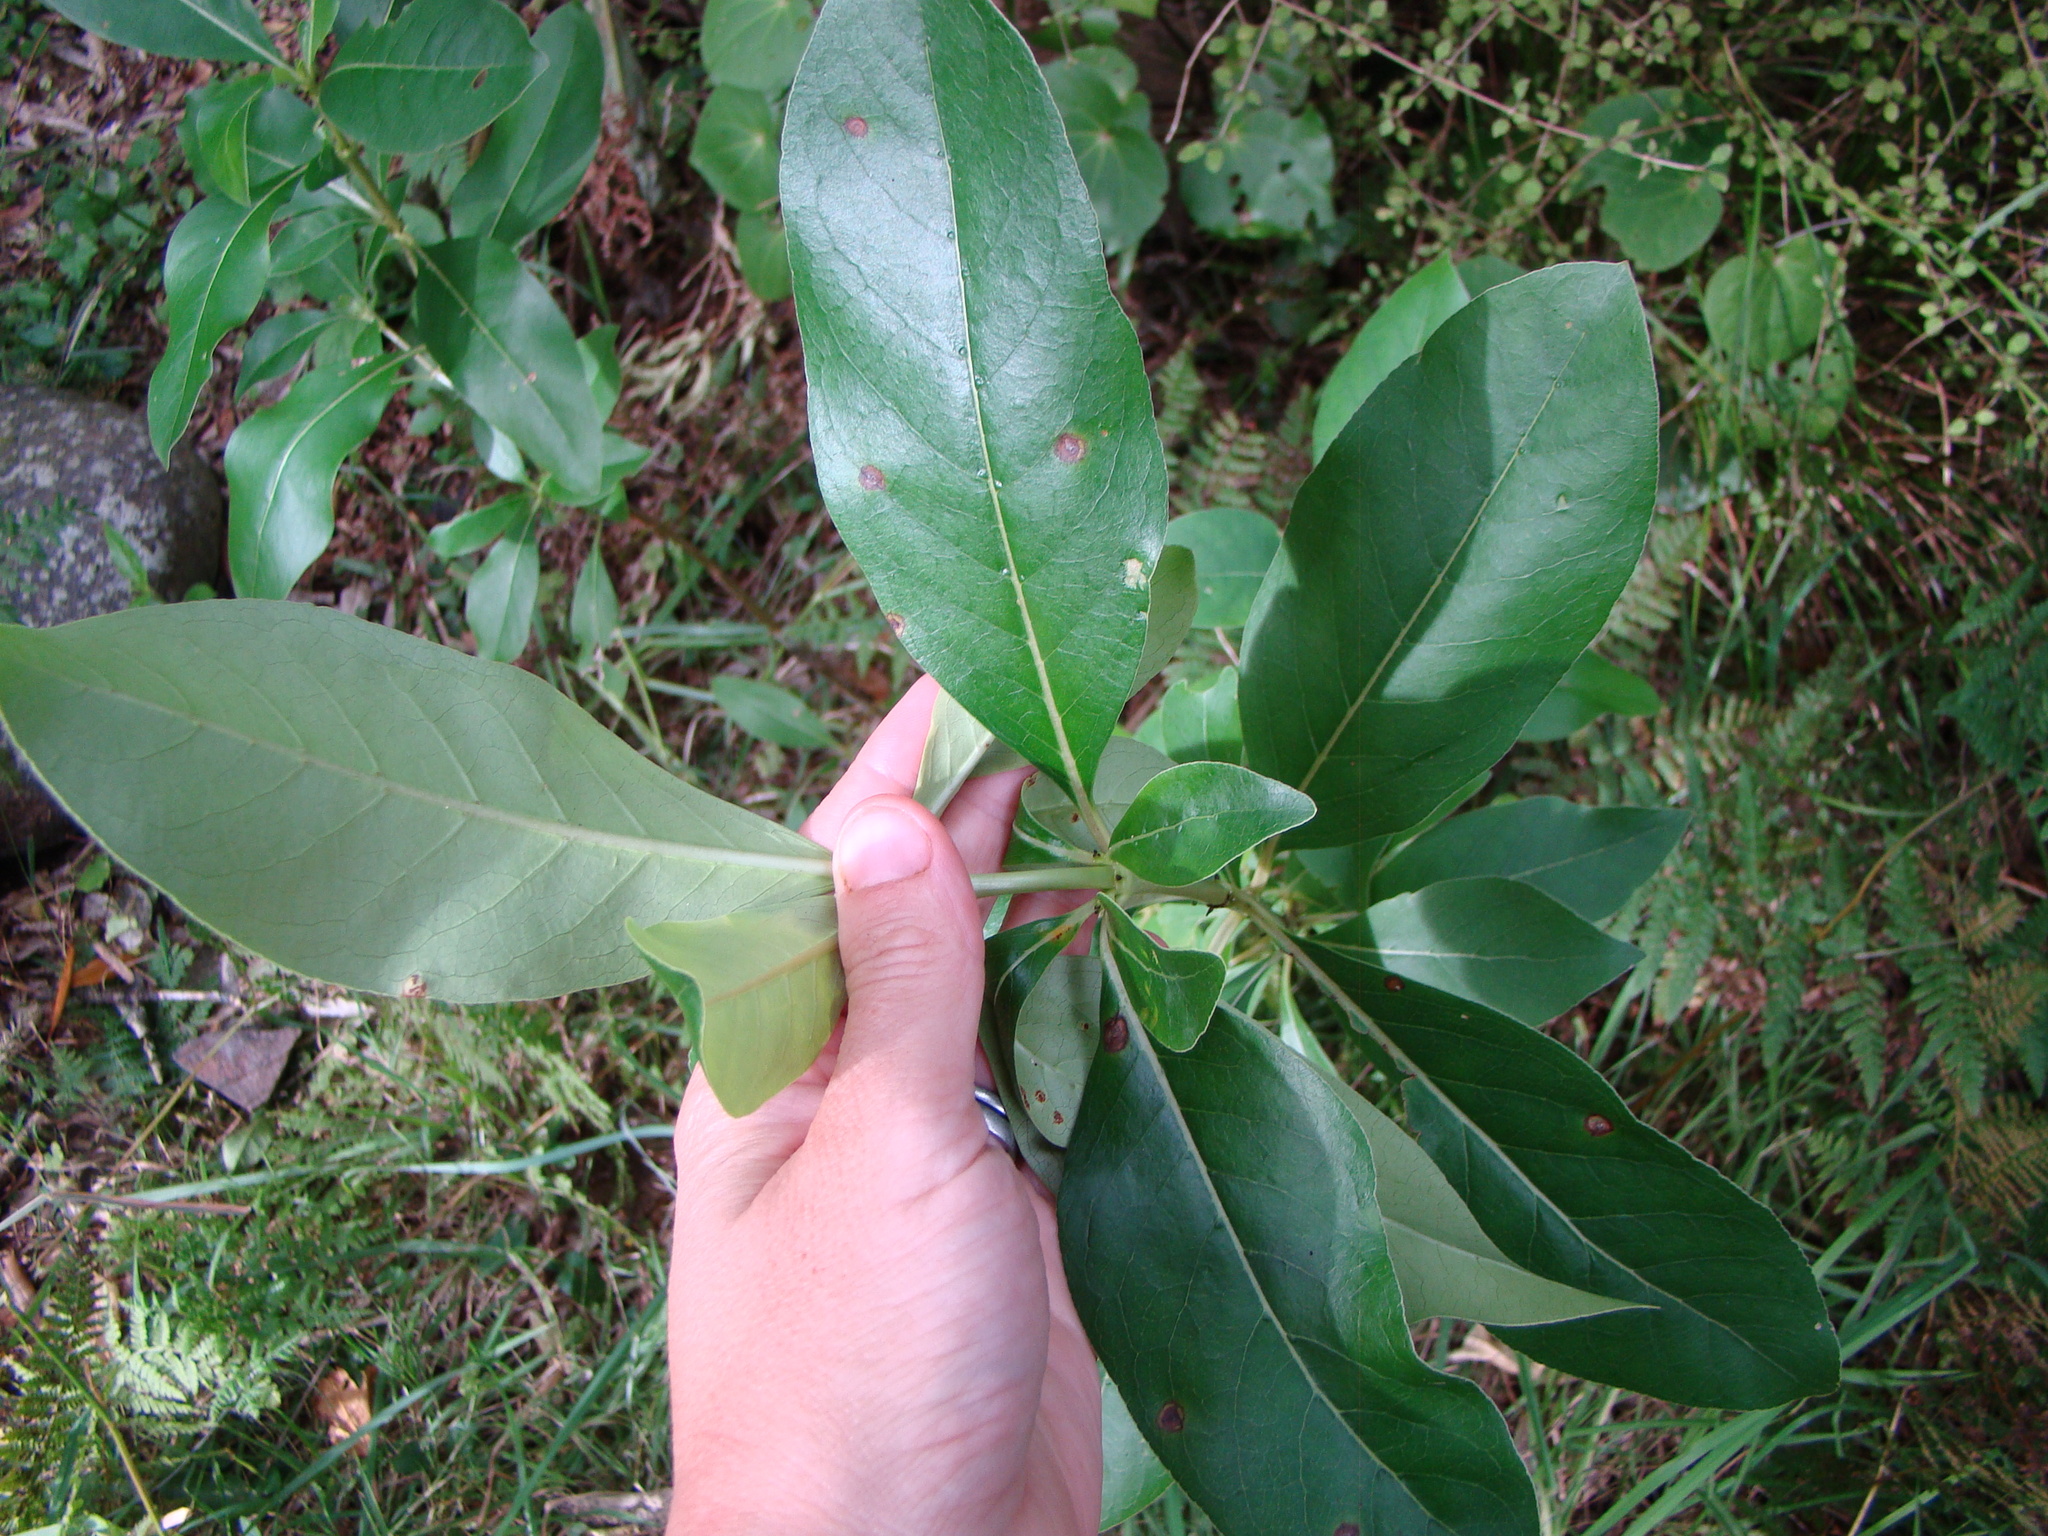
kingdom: Plantae
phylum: Tracheophyta
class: Magnoliopsida
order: Gentianales
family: Rubiaceae
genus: Coprosma
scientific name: Coprosma robusta
